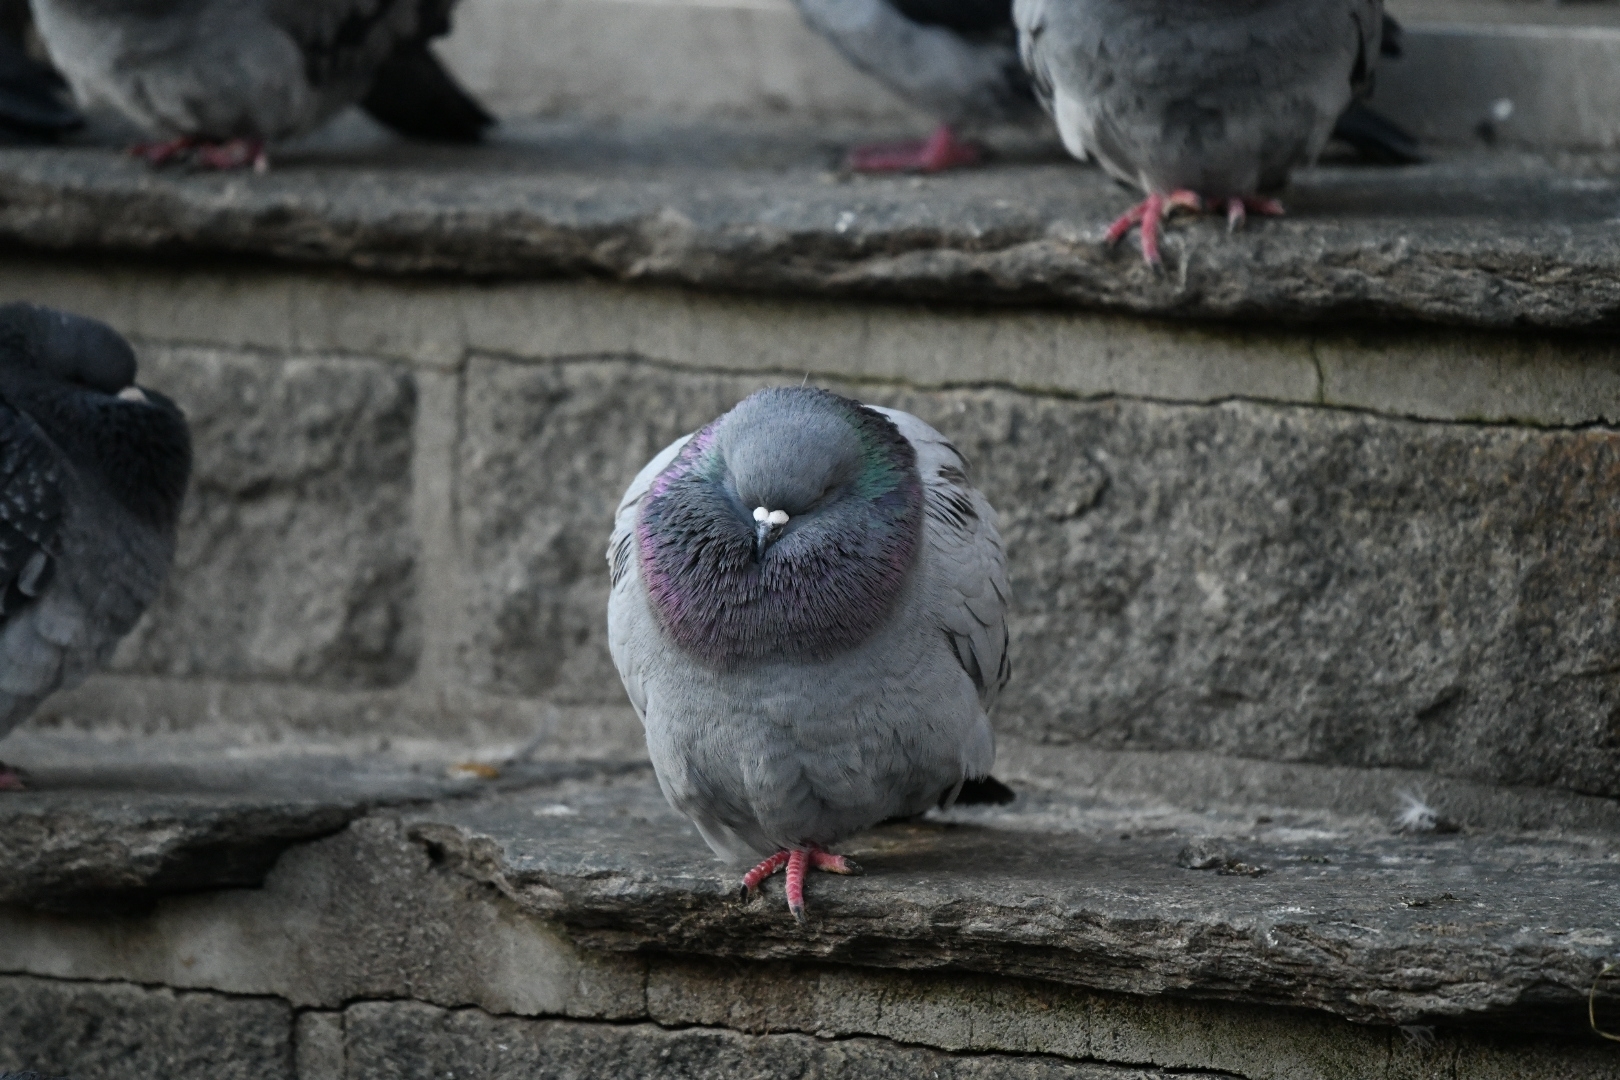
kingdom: Animalia
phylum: Chordata
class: Aves
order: Columbiformes
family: Columbidae
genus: Columba
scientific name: Columba livia
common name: Rock pigeon
